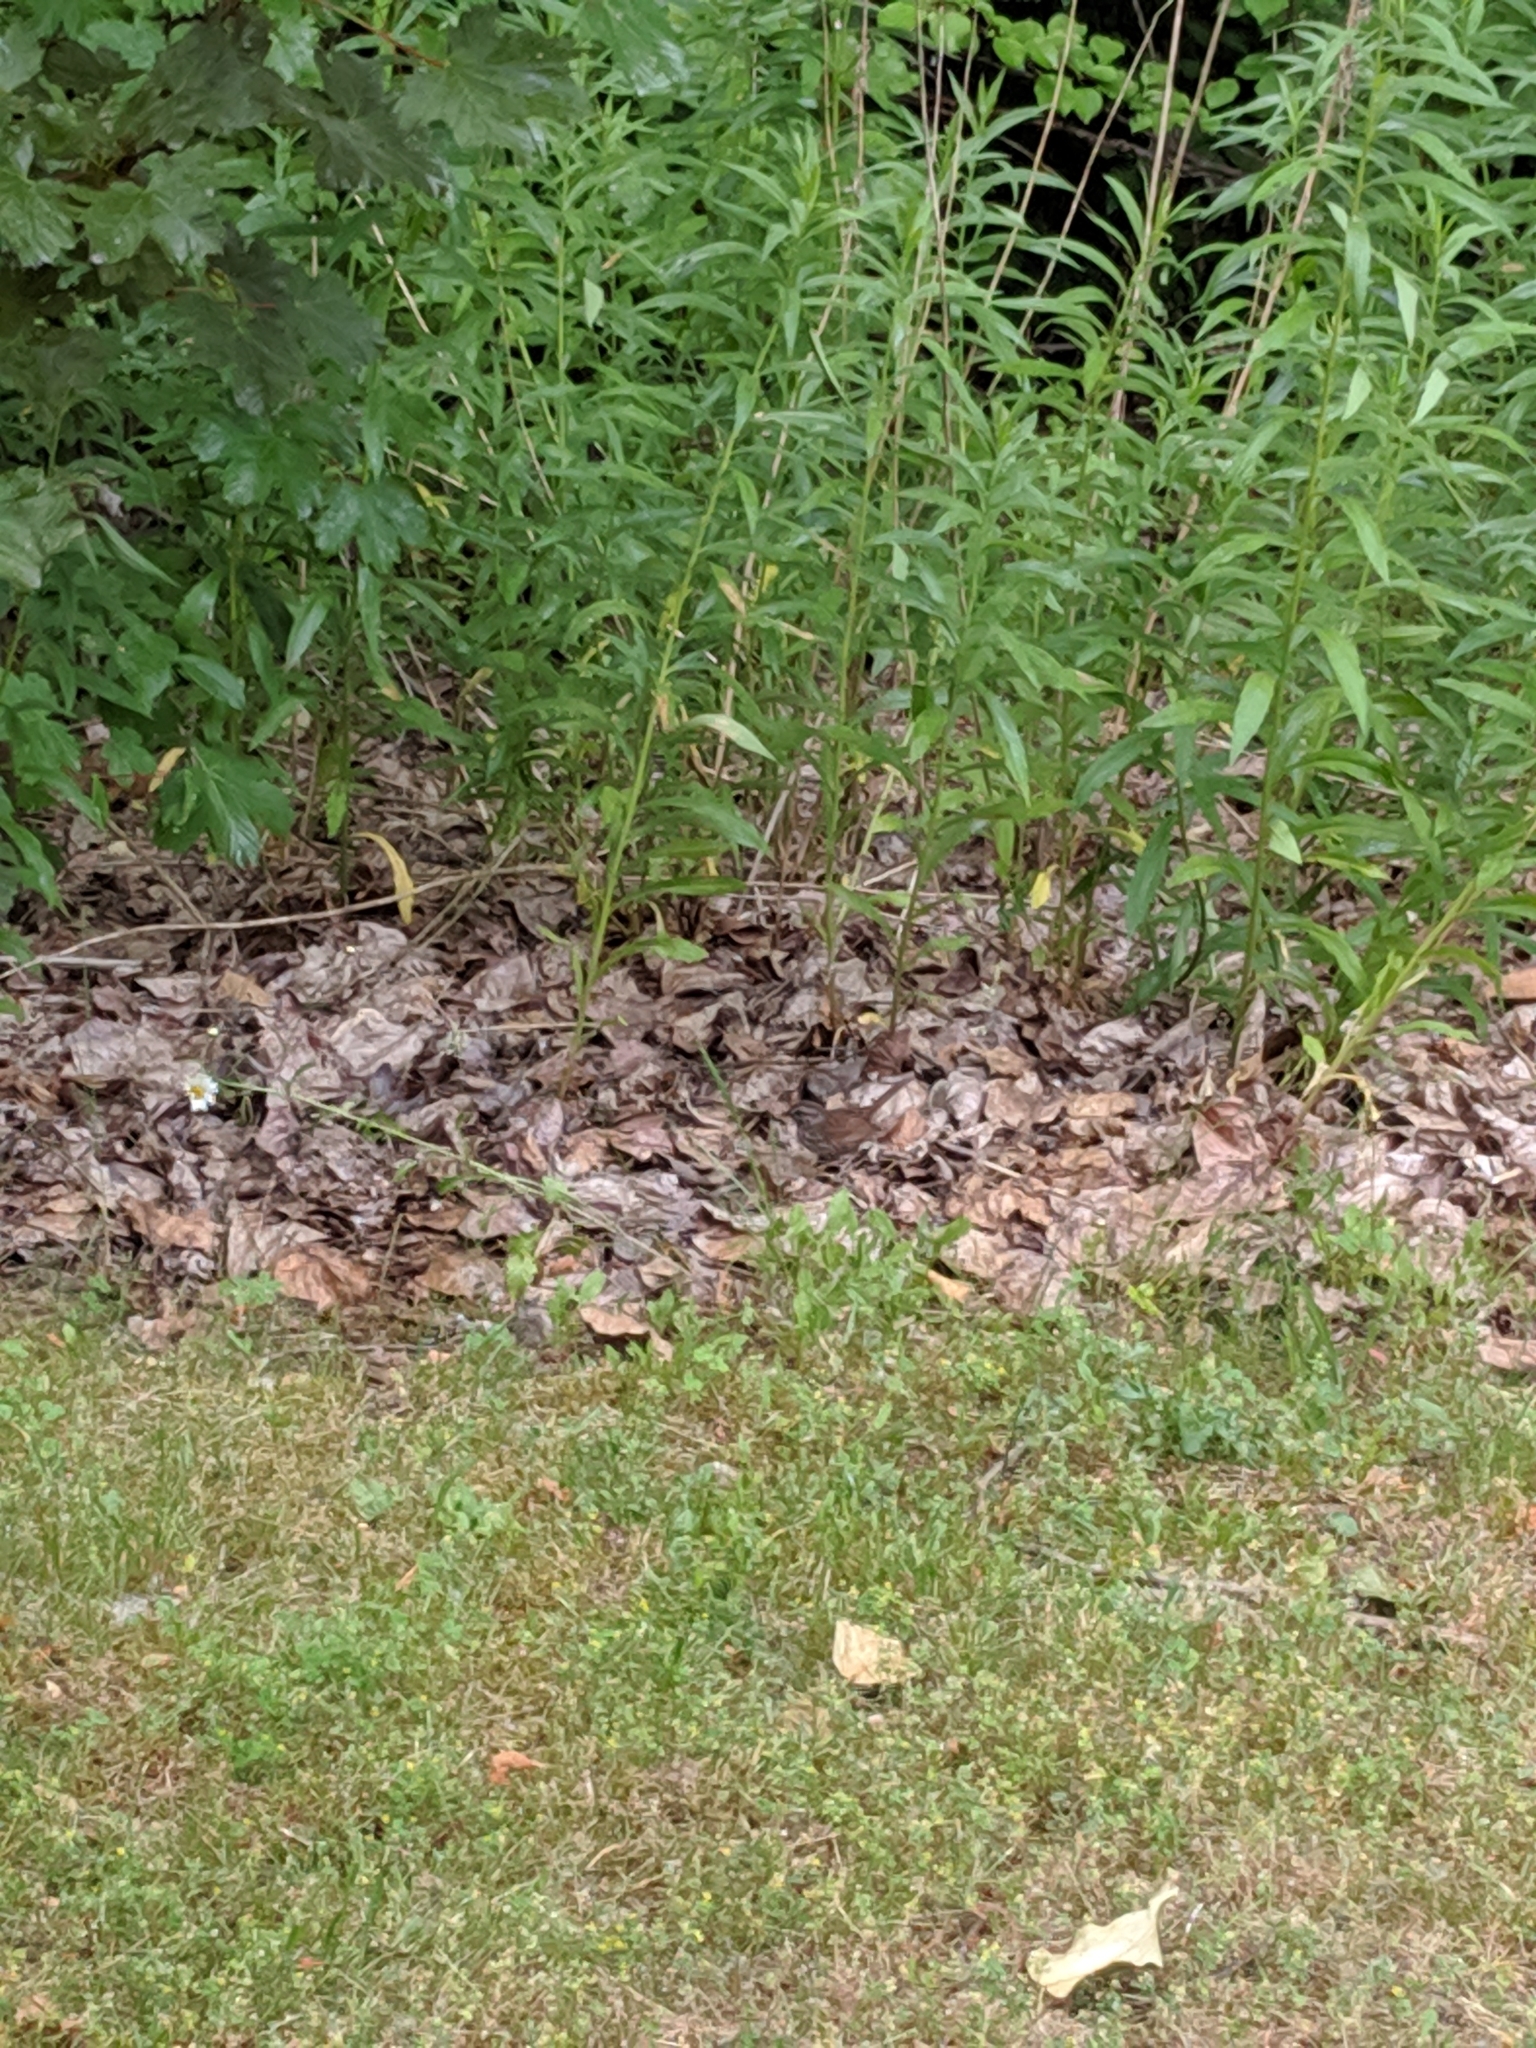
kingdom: Animalia
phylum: Chordata
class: Aves
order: Passeriformes
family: Passerellidae
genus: Melospiza
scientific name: Melospiza melodia
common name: Song sparrow
